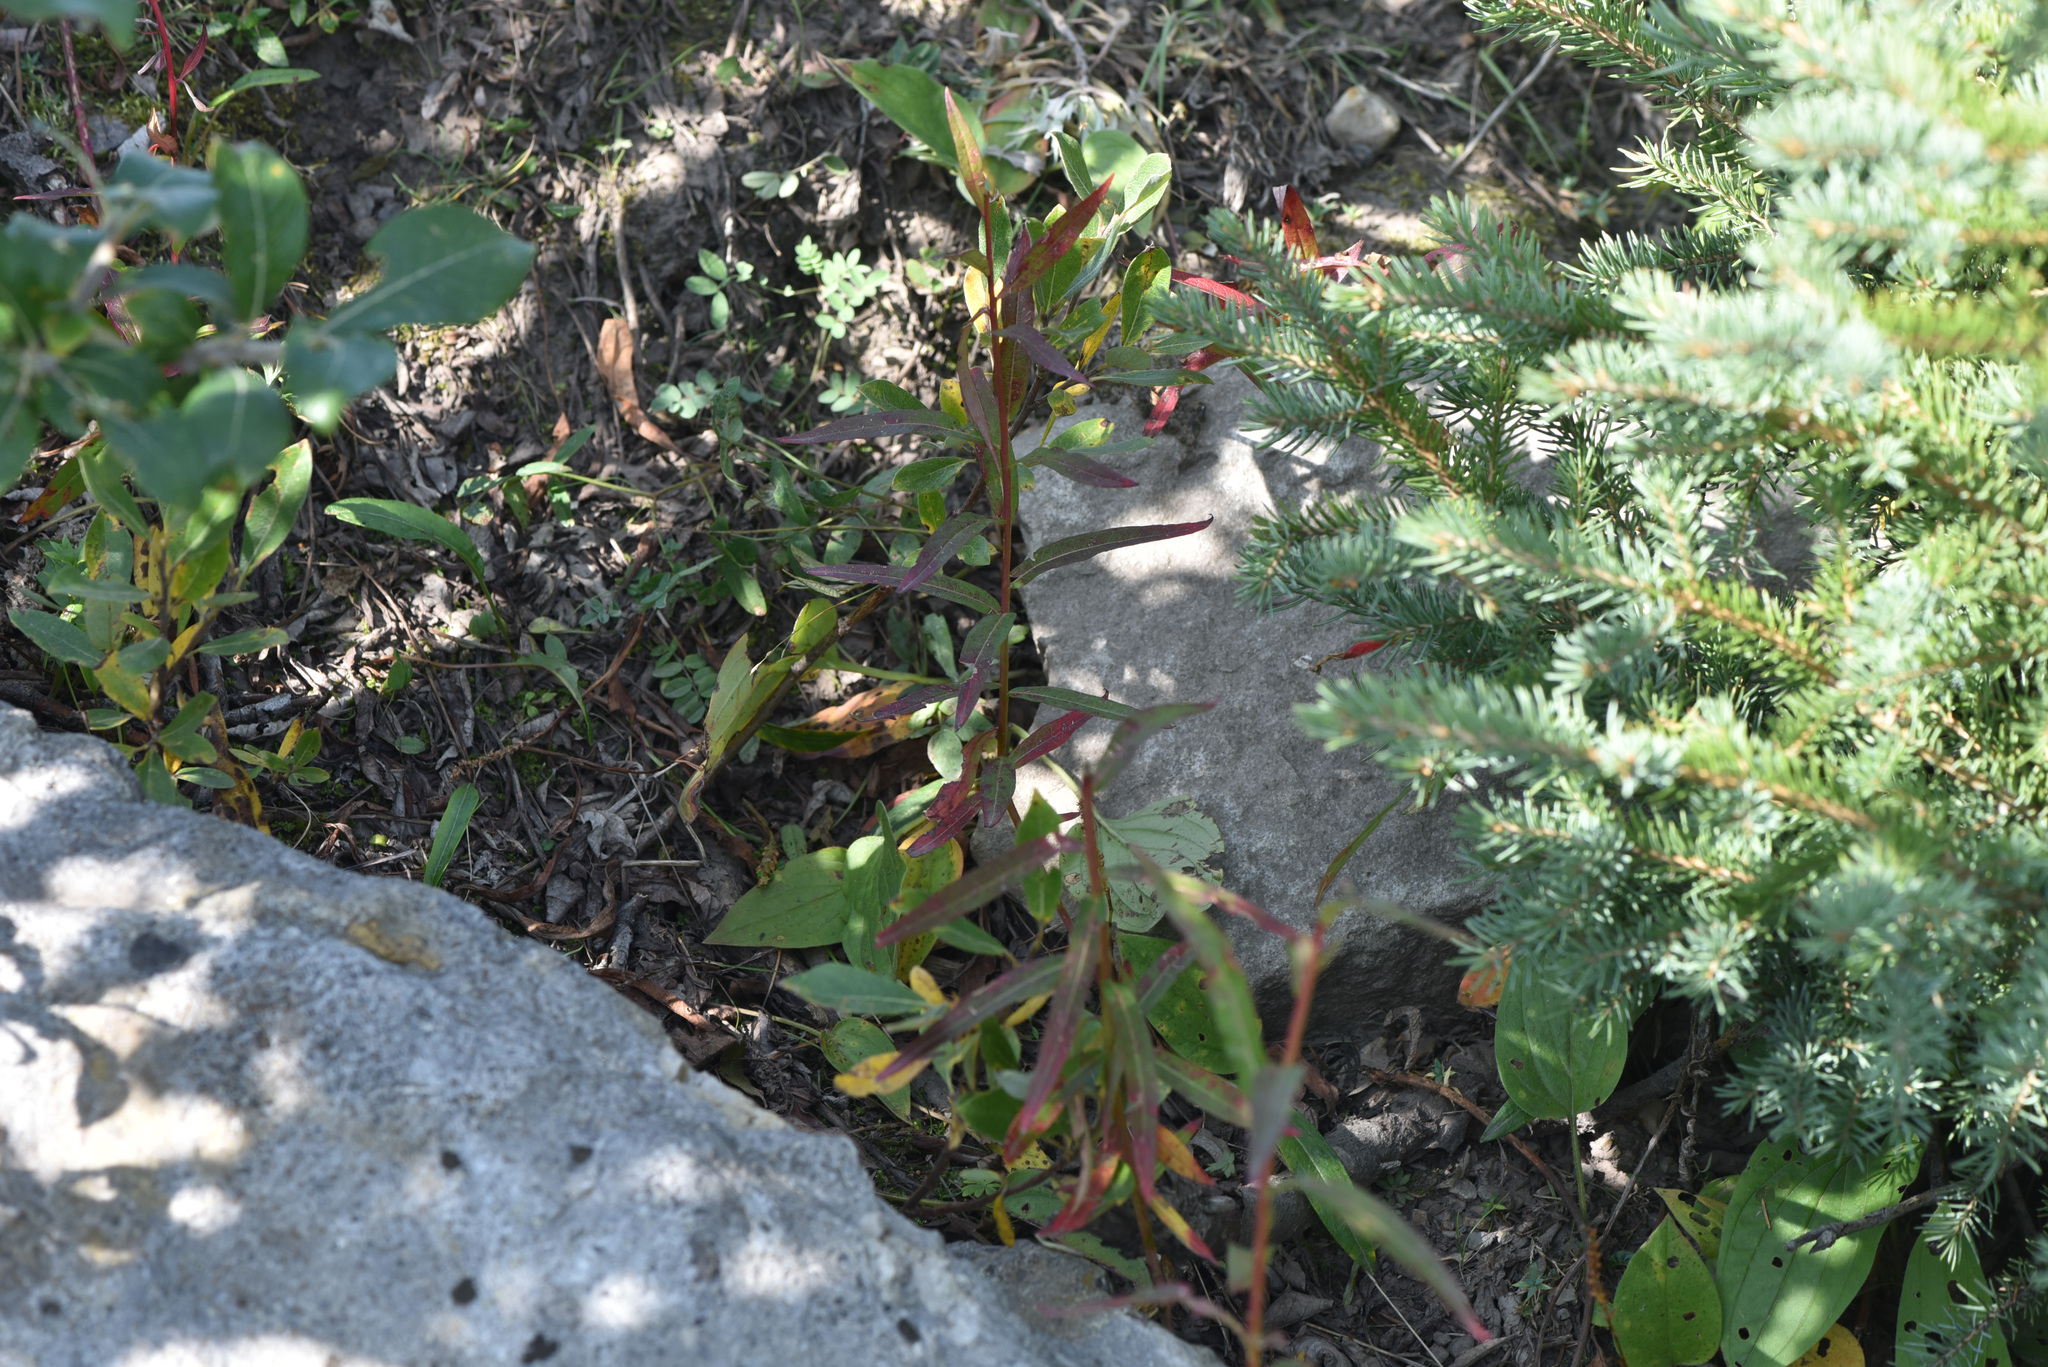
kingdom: Plantae
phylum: Tracheophyta
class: Magnoliopsida
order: Myrtales
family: Onagraceae
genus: Chamaenerion
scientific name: Chamaenerion angustifolium
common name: Fireweed
